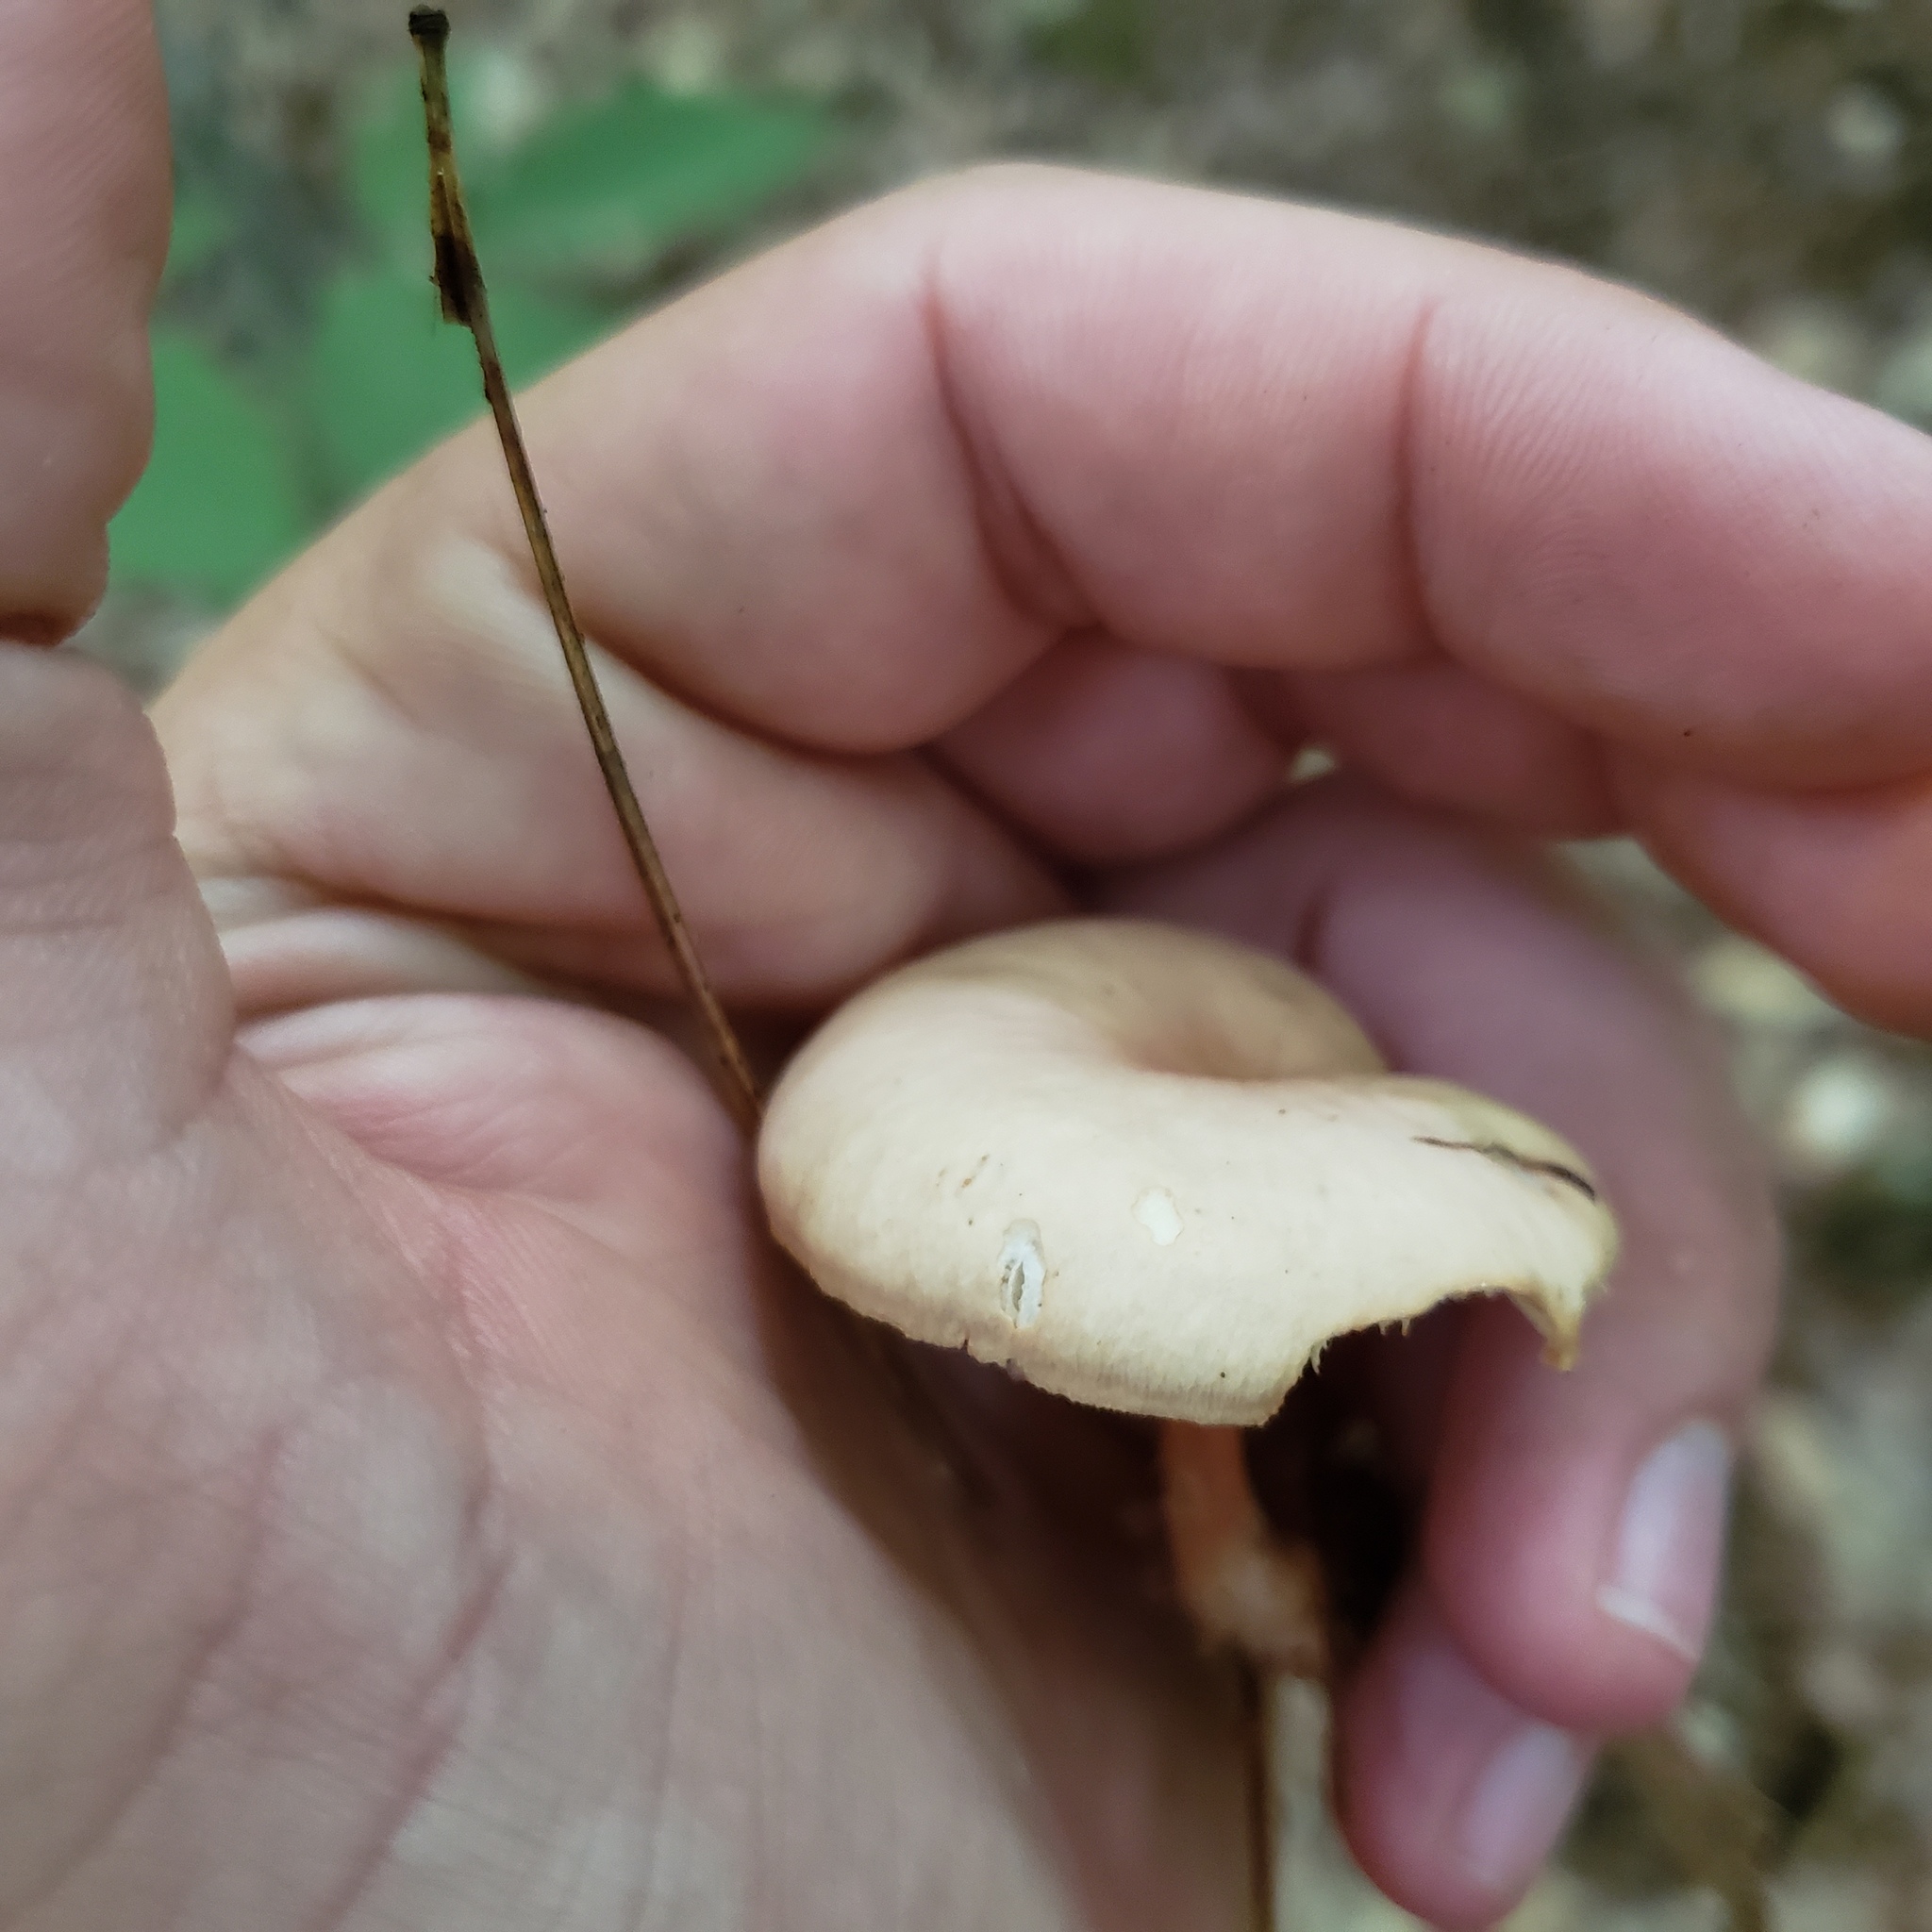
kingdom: Fungi
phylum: Basidiomycota
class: Agaricomycetes
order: Agaricales
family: Omphalotaceae
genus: Gymnopus
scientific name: Gymnopus dryophilus
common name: Penny top
